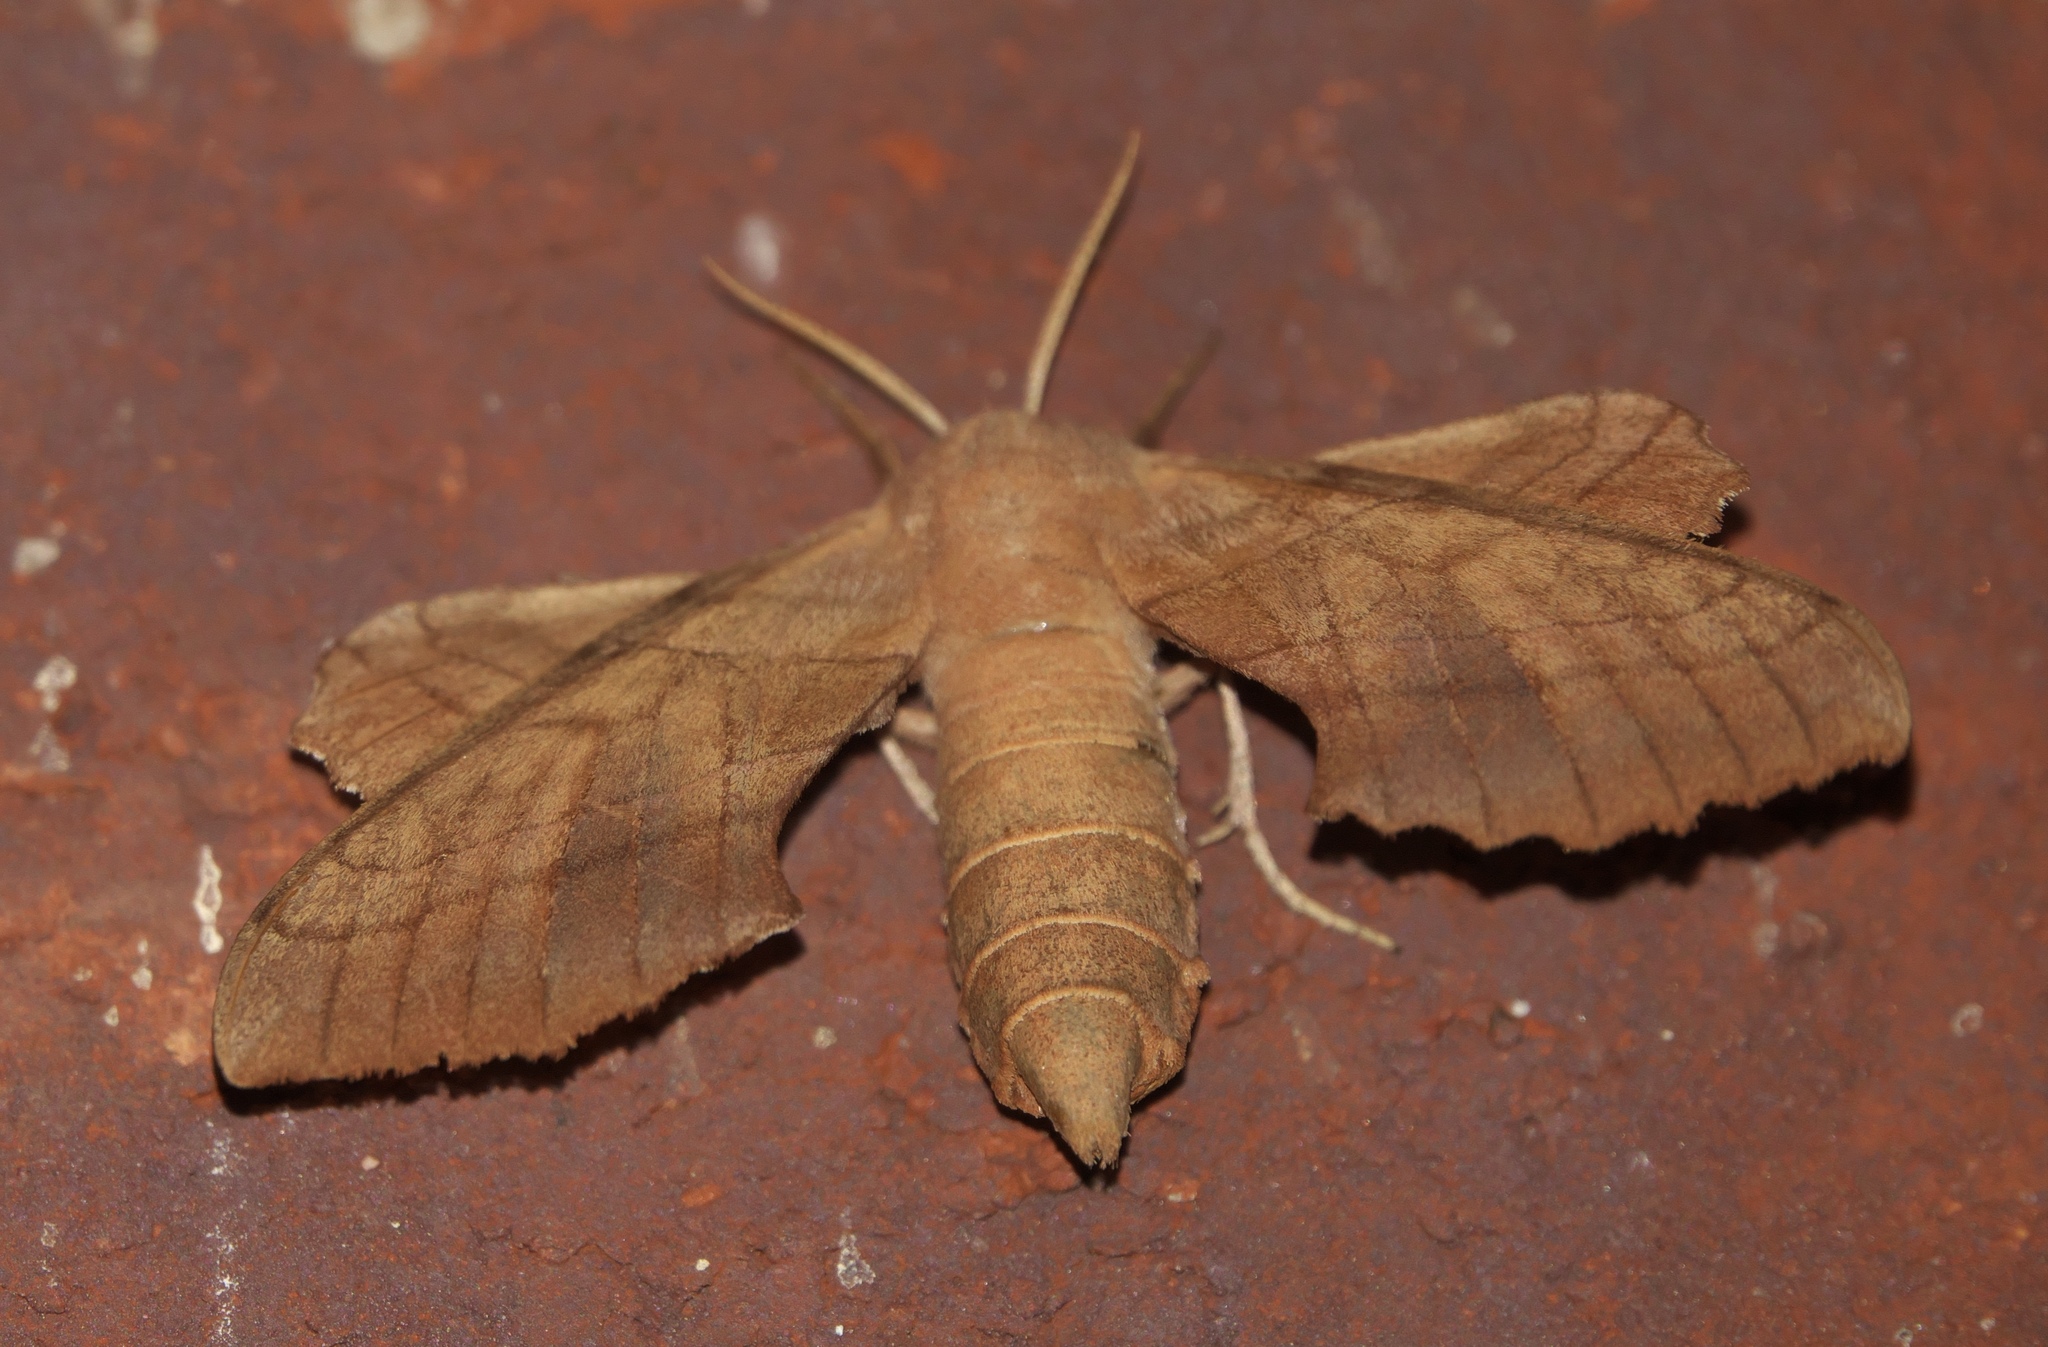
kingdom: Animalia
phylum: Arthropoda
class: Insecta
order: Lepidoptera
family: Sphingidae
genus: Amorpha
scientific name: Amorpha juglandis
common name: Walnut sphinx
